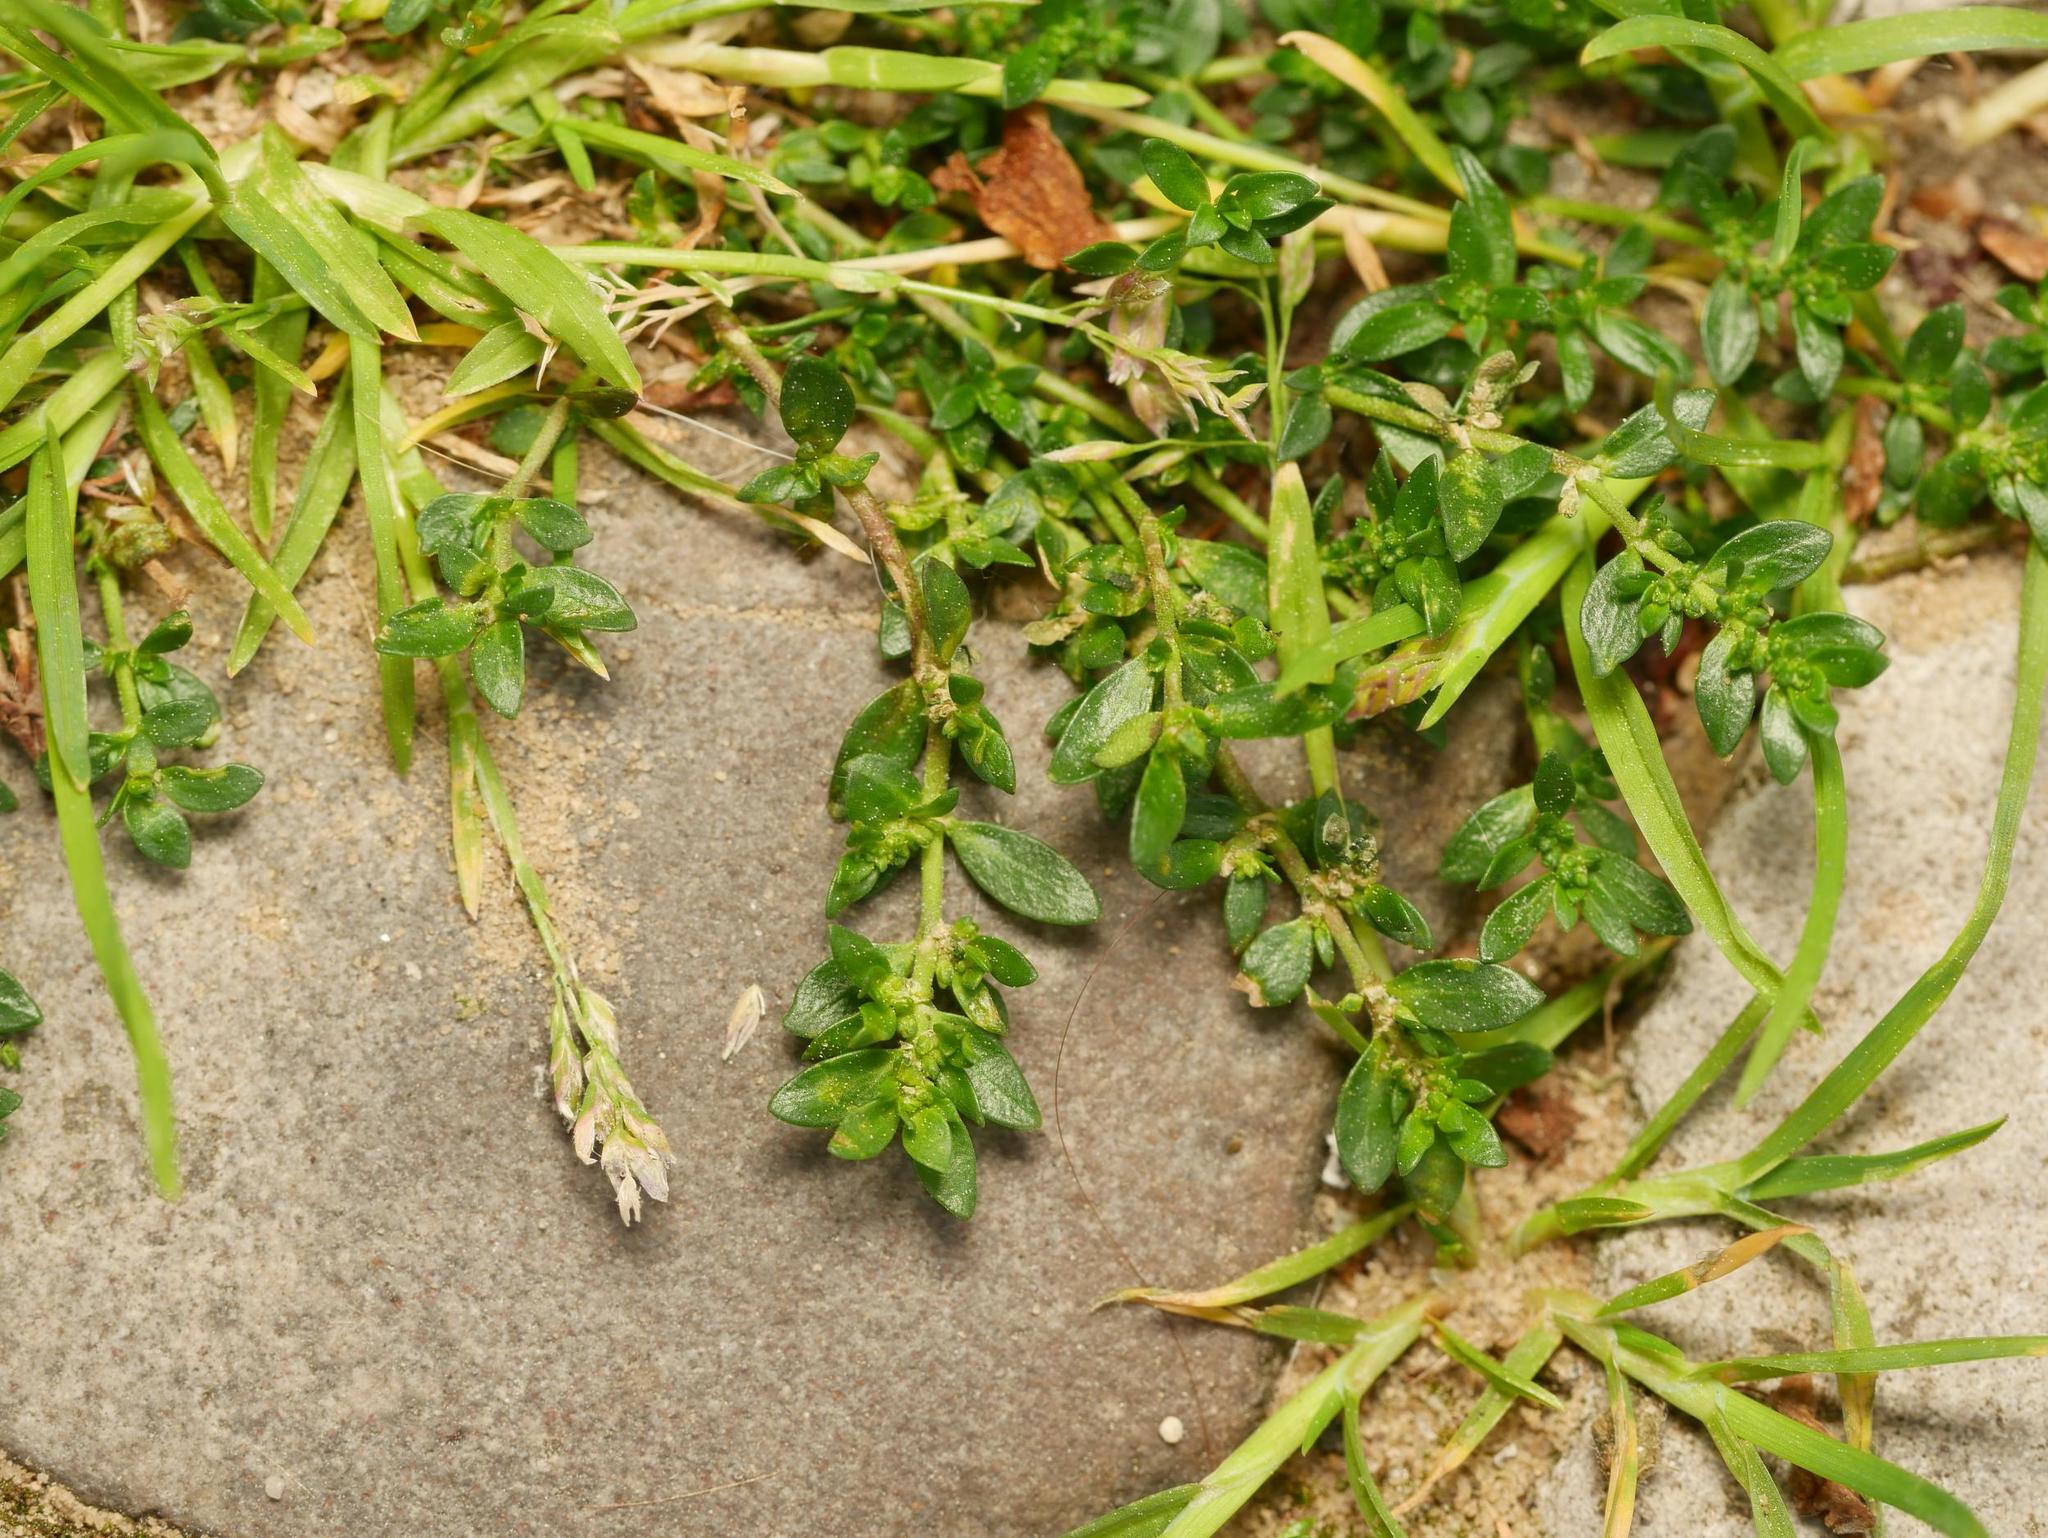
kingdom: Plantae
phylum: Tracheophyta
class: Magnoliopsida
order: Caryophyllales
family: Caryophyllaceae
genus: Herniaria
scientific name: Herniaria glabra
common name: Smooth rupturewort
